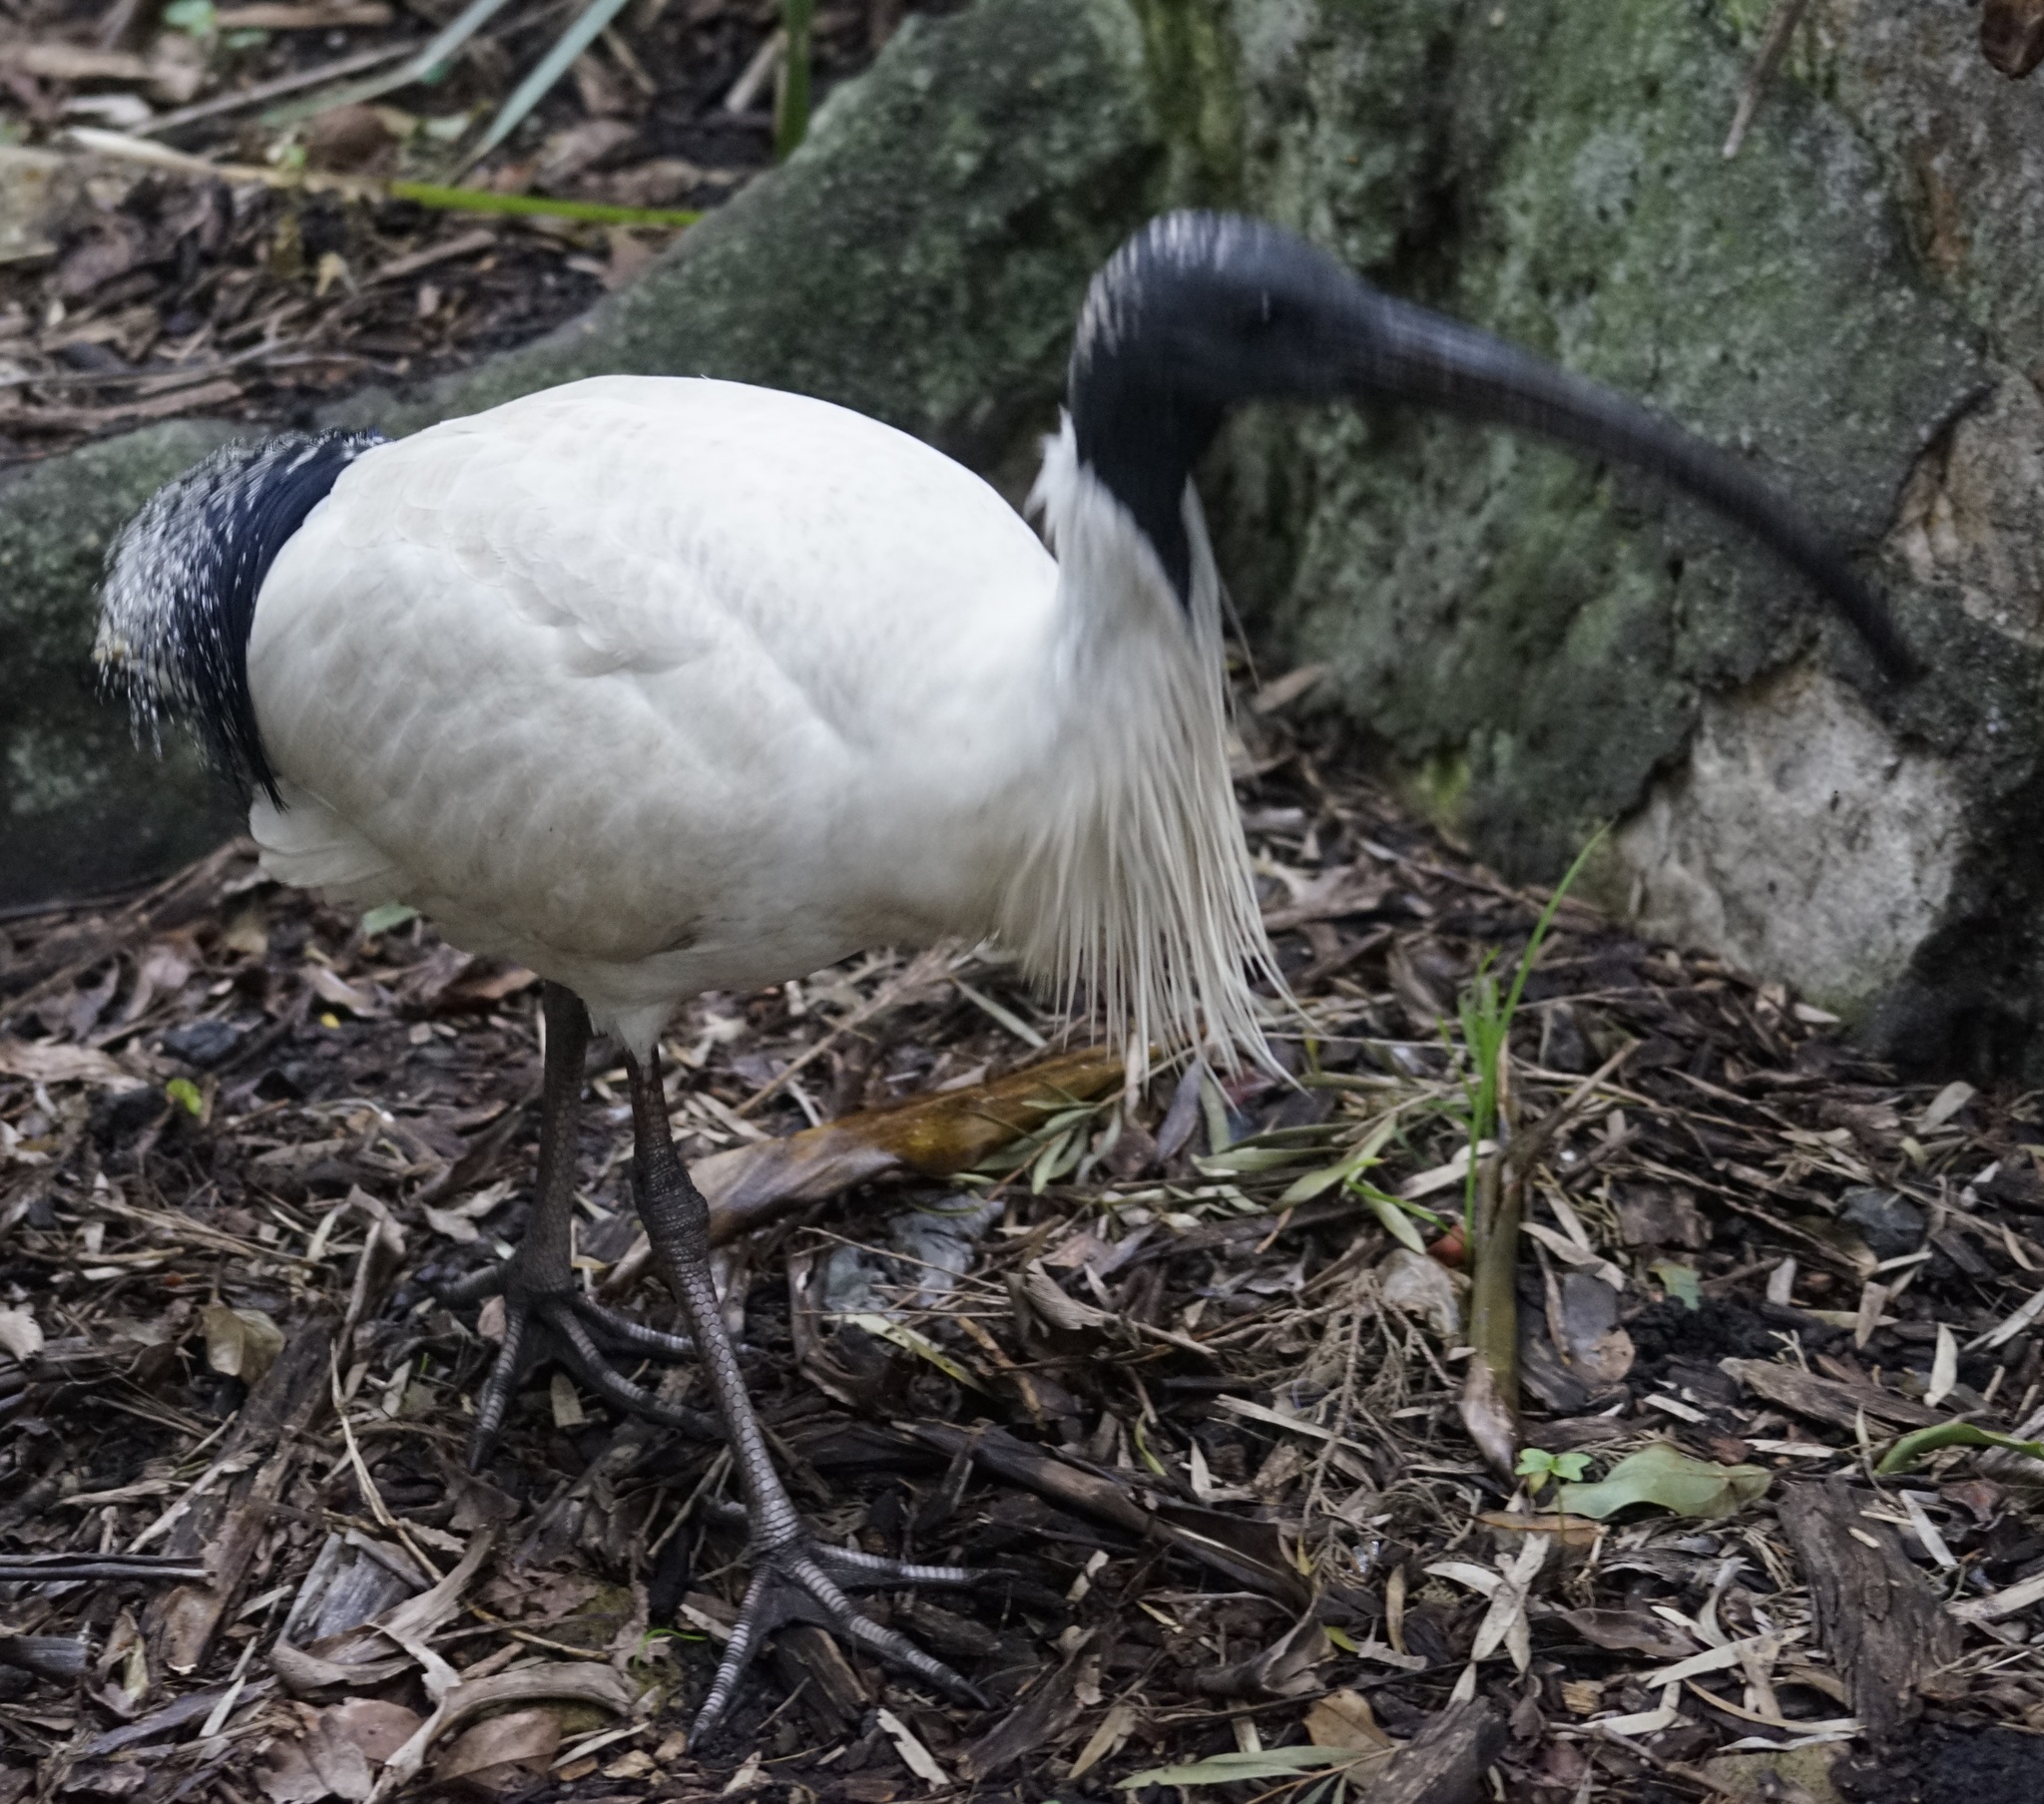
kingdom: Animalia
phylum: Chordata
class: Aves
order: Pelecaniformes
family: Threskiornithidae
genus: Threskiornis
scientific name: Threskiornis molucca
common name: Australian white ibis
